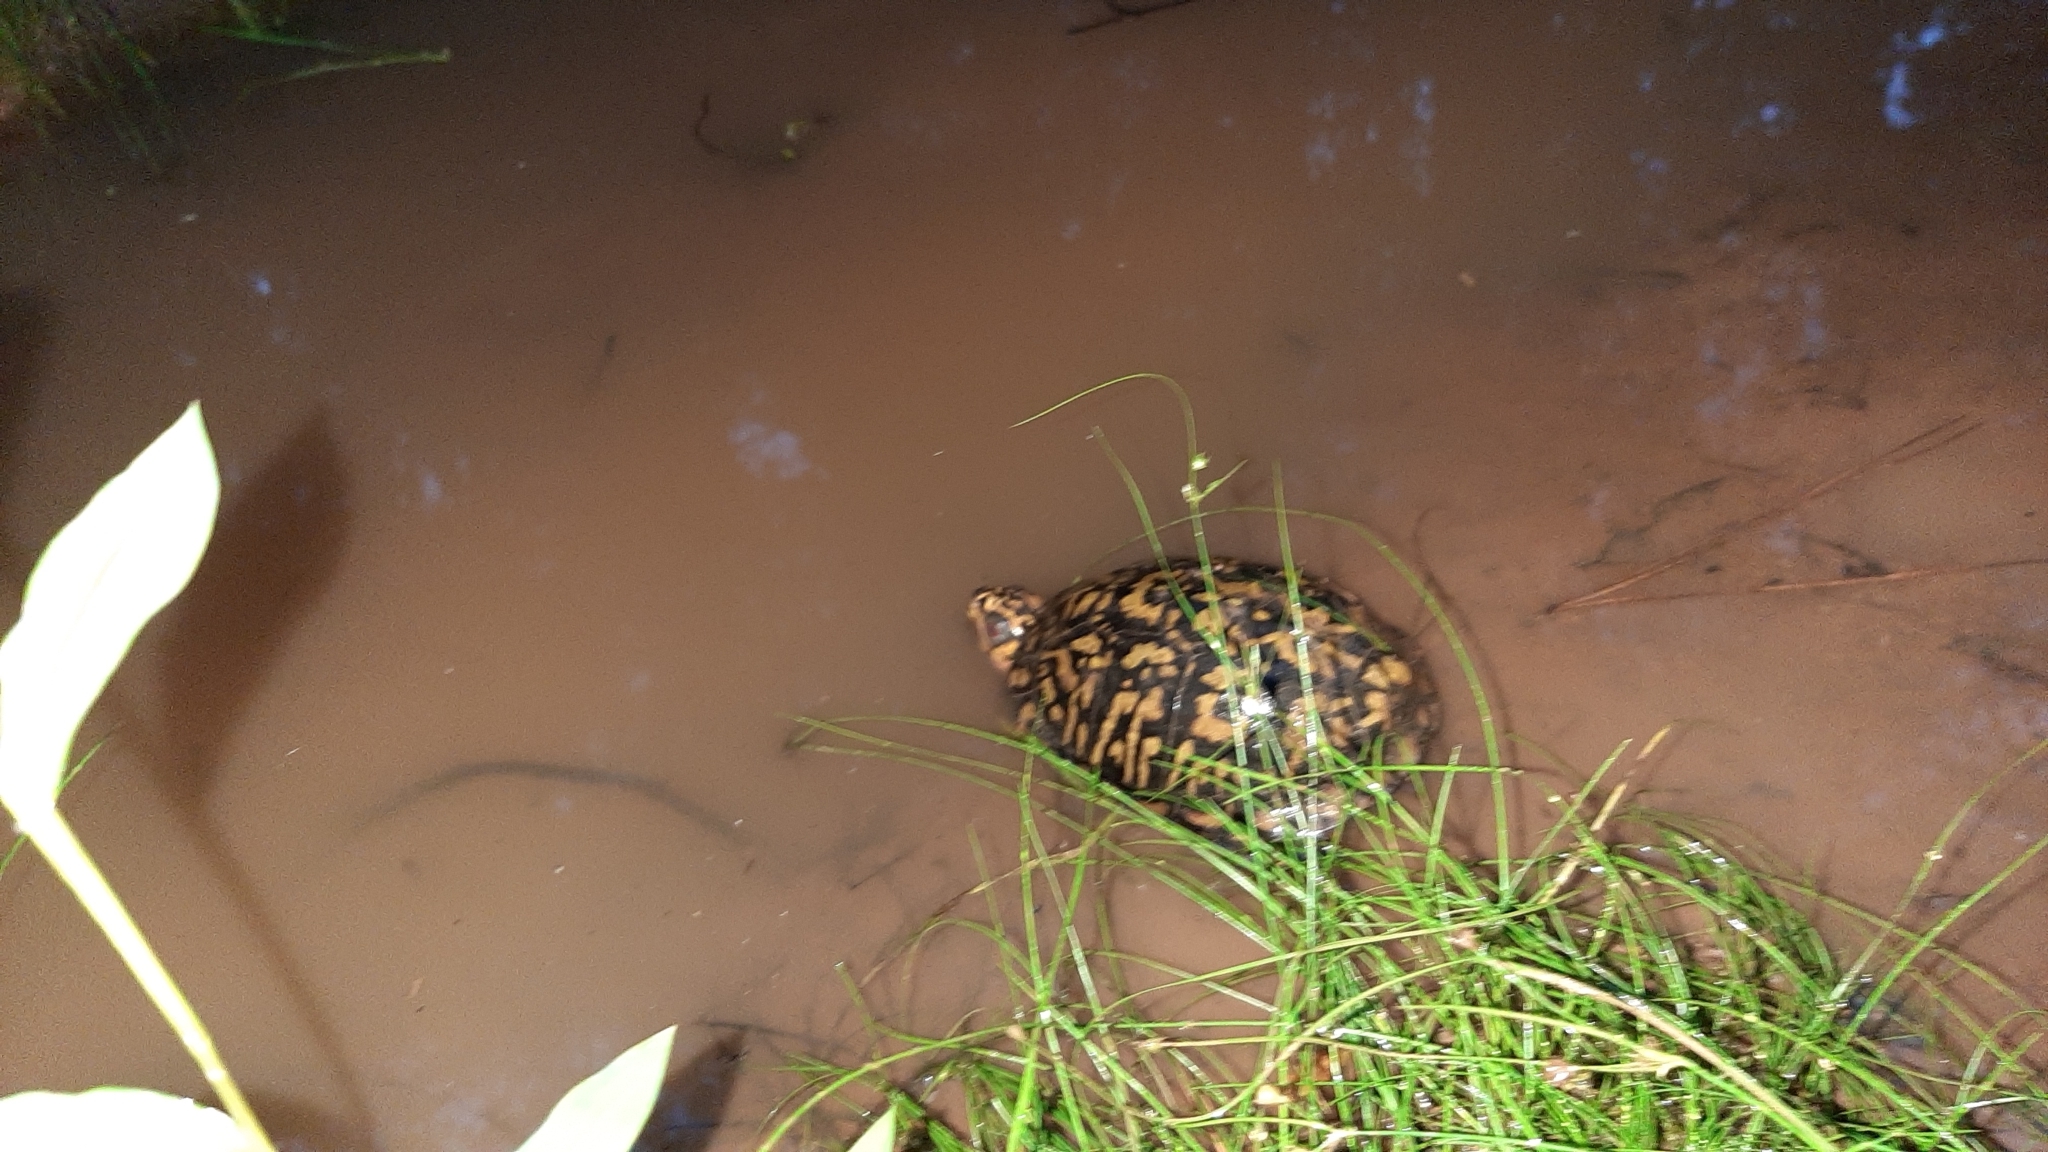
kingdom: Animalia
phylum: Chordata
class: Testudines
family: Emydidae
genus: Terrapene
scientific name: Terrapene carolina
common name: Common box turtle
